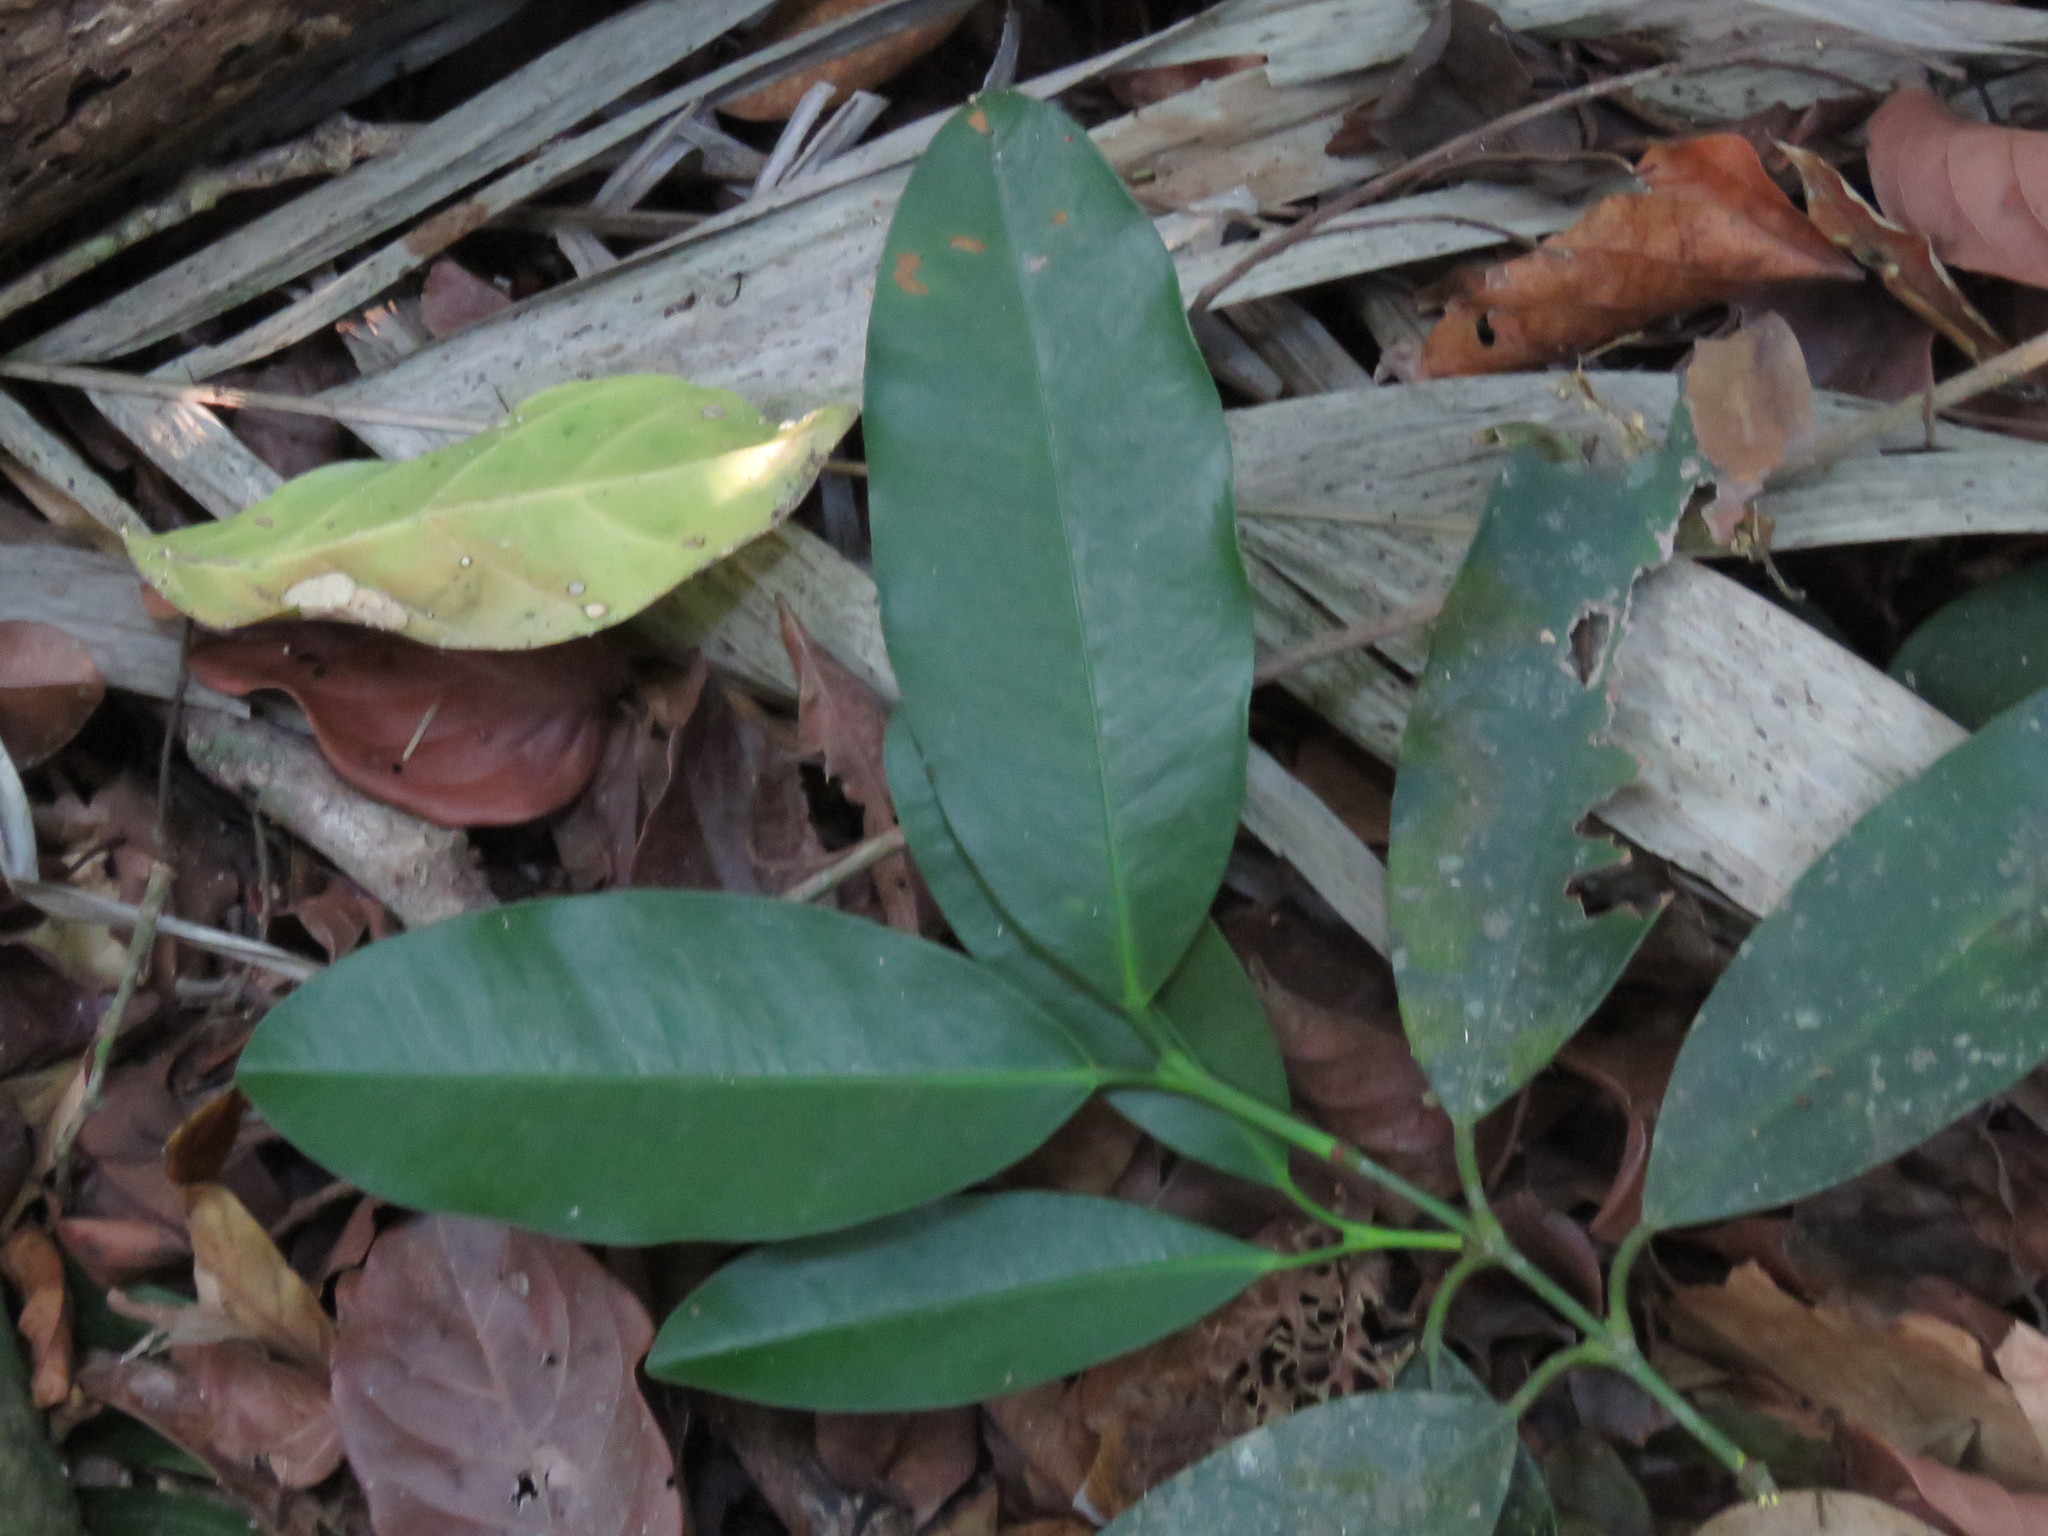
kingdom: Plantae
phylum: Tracheophyta
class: Magnoliopsida
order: Malpighiales
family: Clusiaceae
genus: Garcinia
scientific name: Garcinia intermedia
